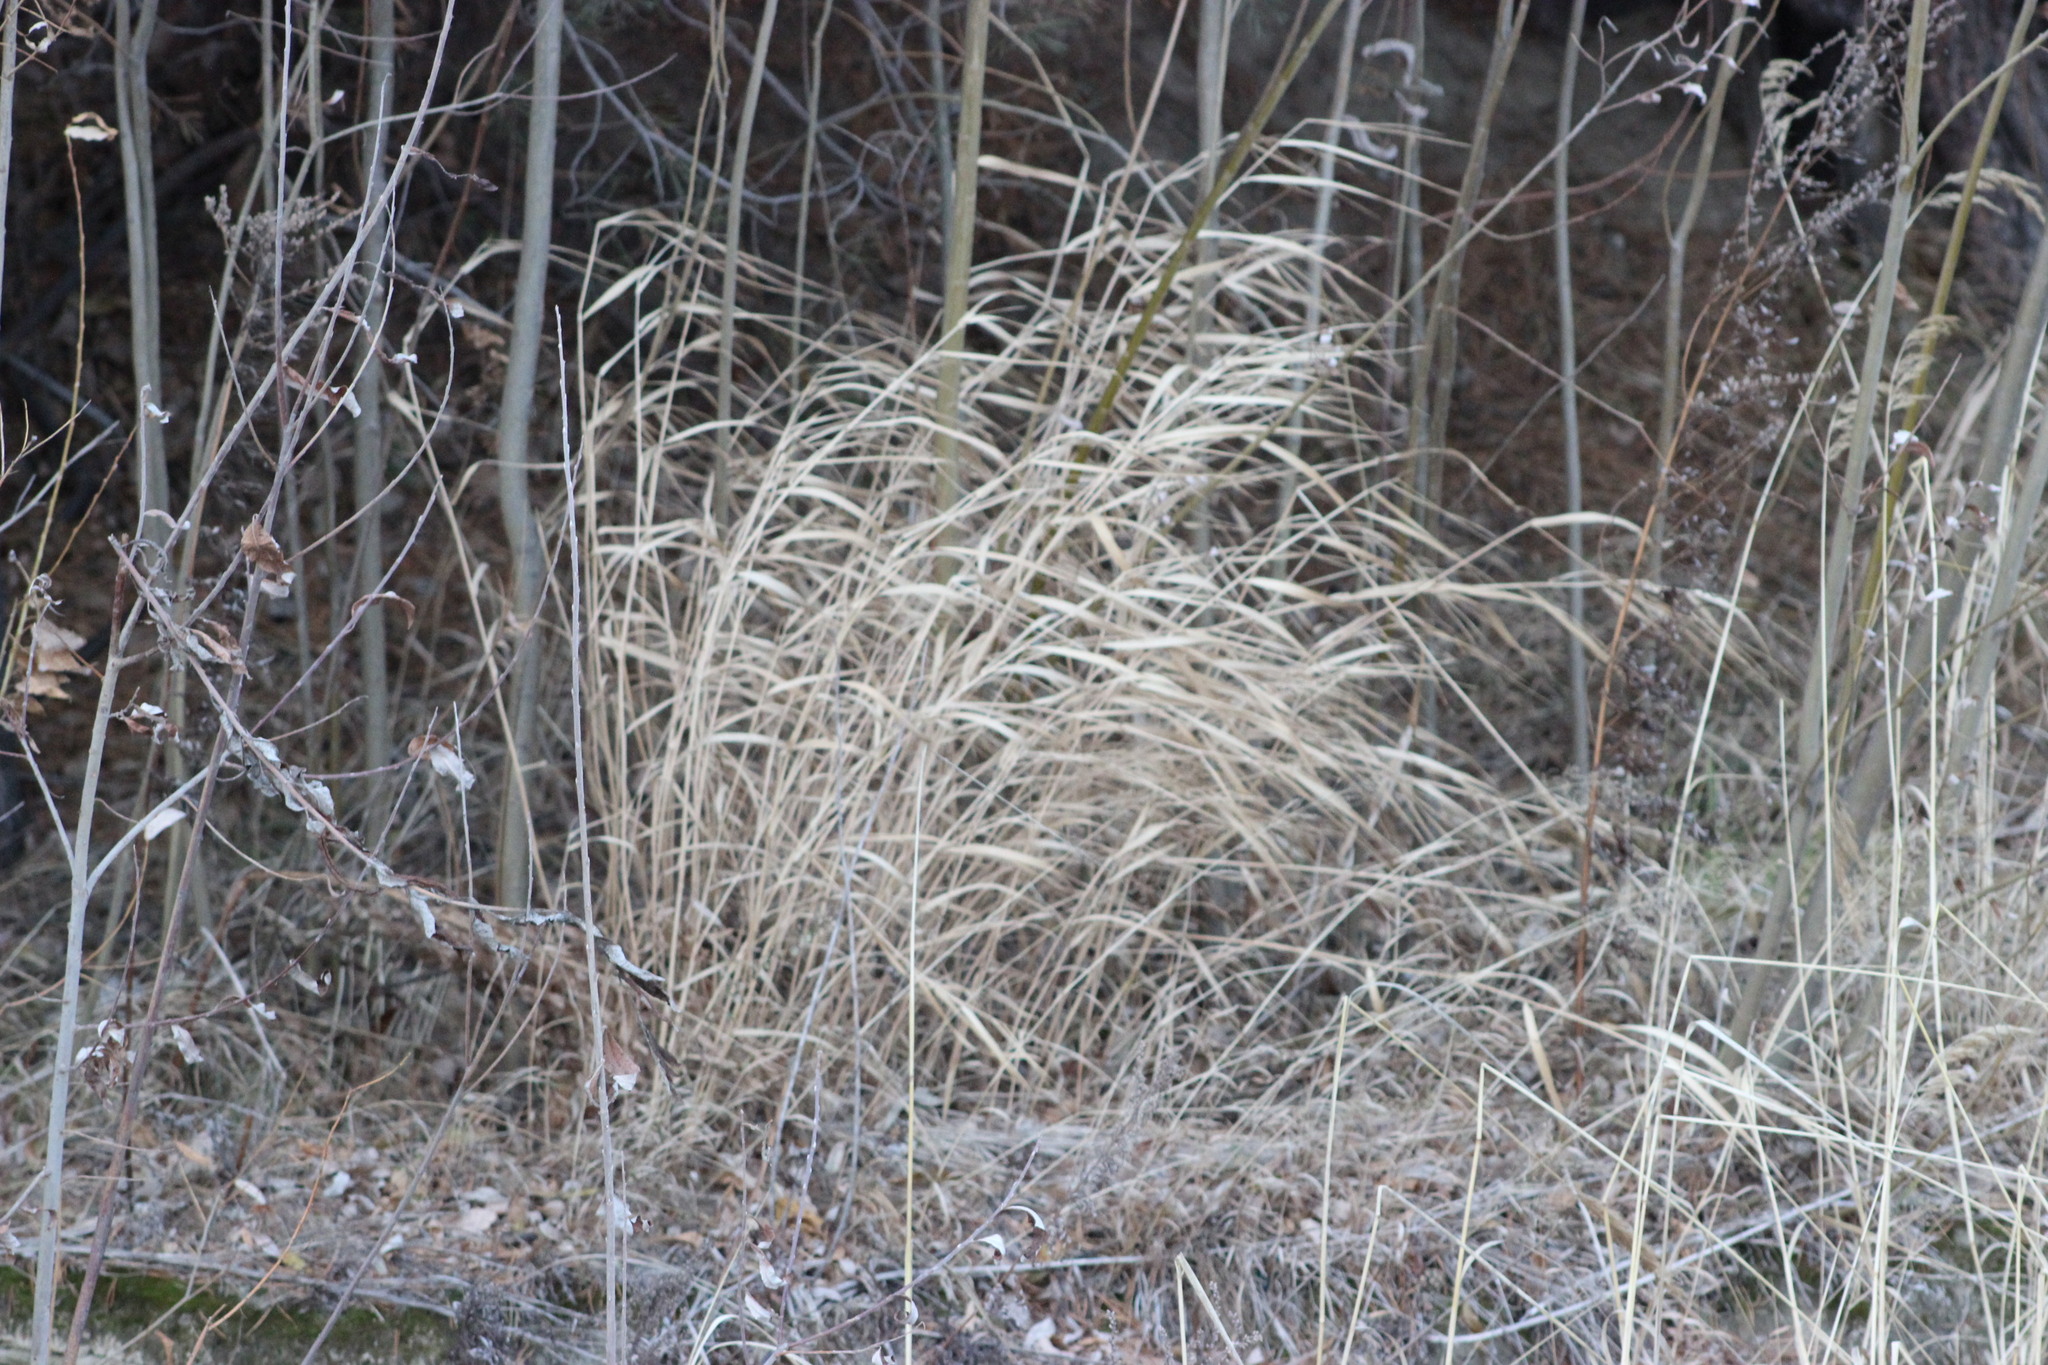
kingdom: Plantae
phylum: Tracheophyta
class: Liliopsida
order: Poales
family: Poaceae
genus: Calamagrostis
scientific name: Calamagrostis purpurea
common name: Scandinavian small-reed
